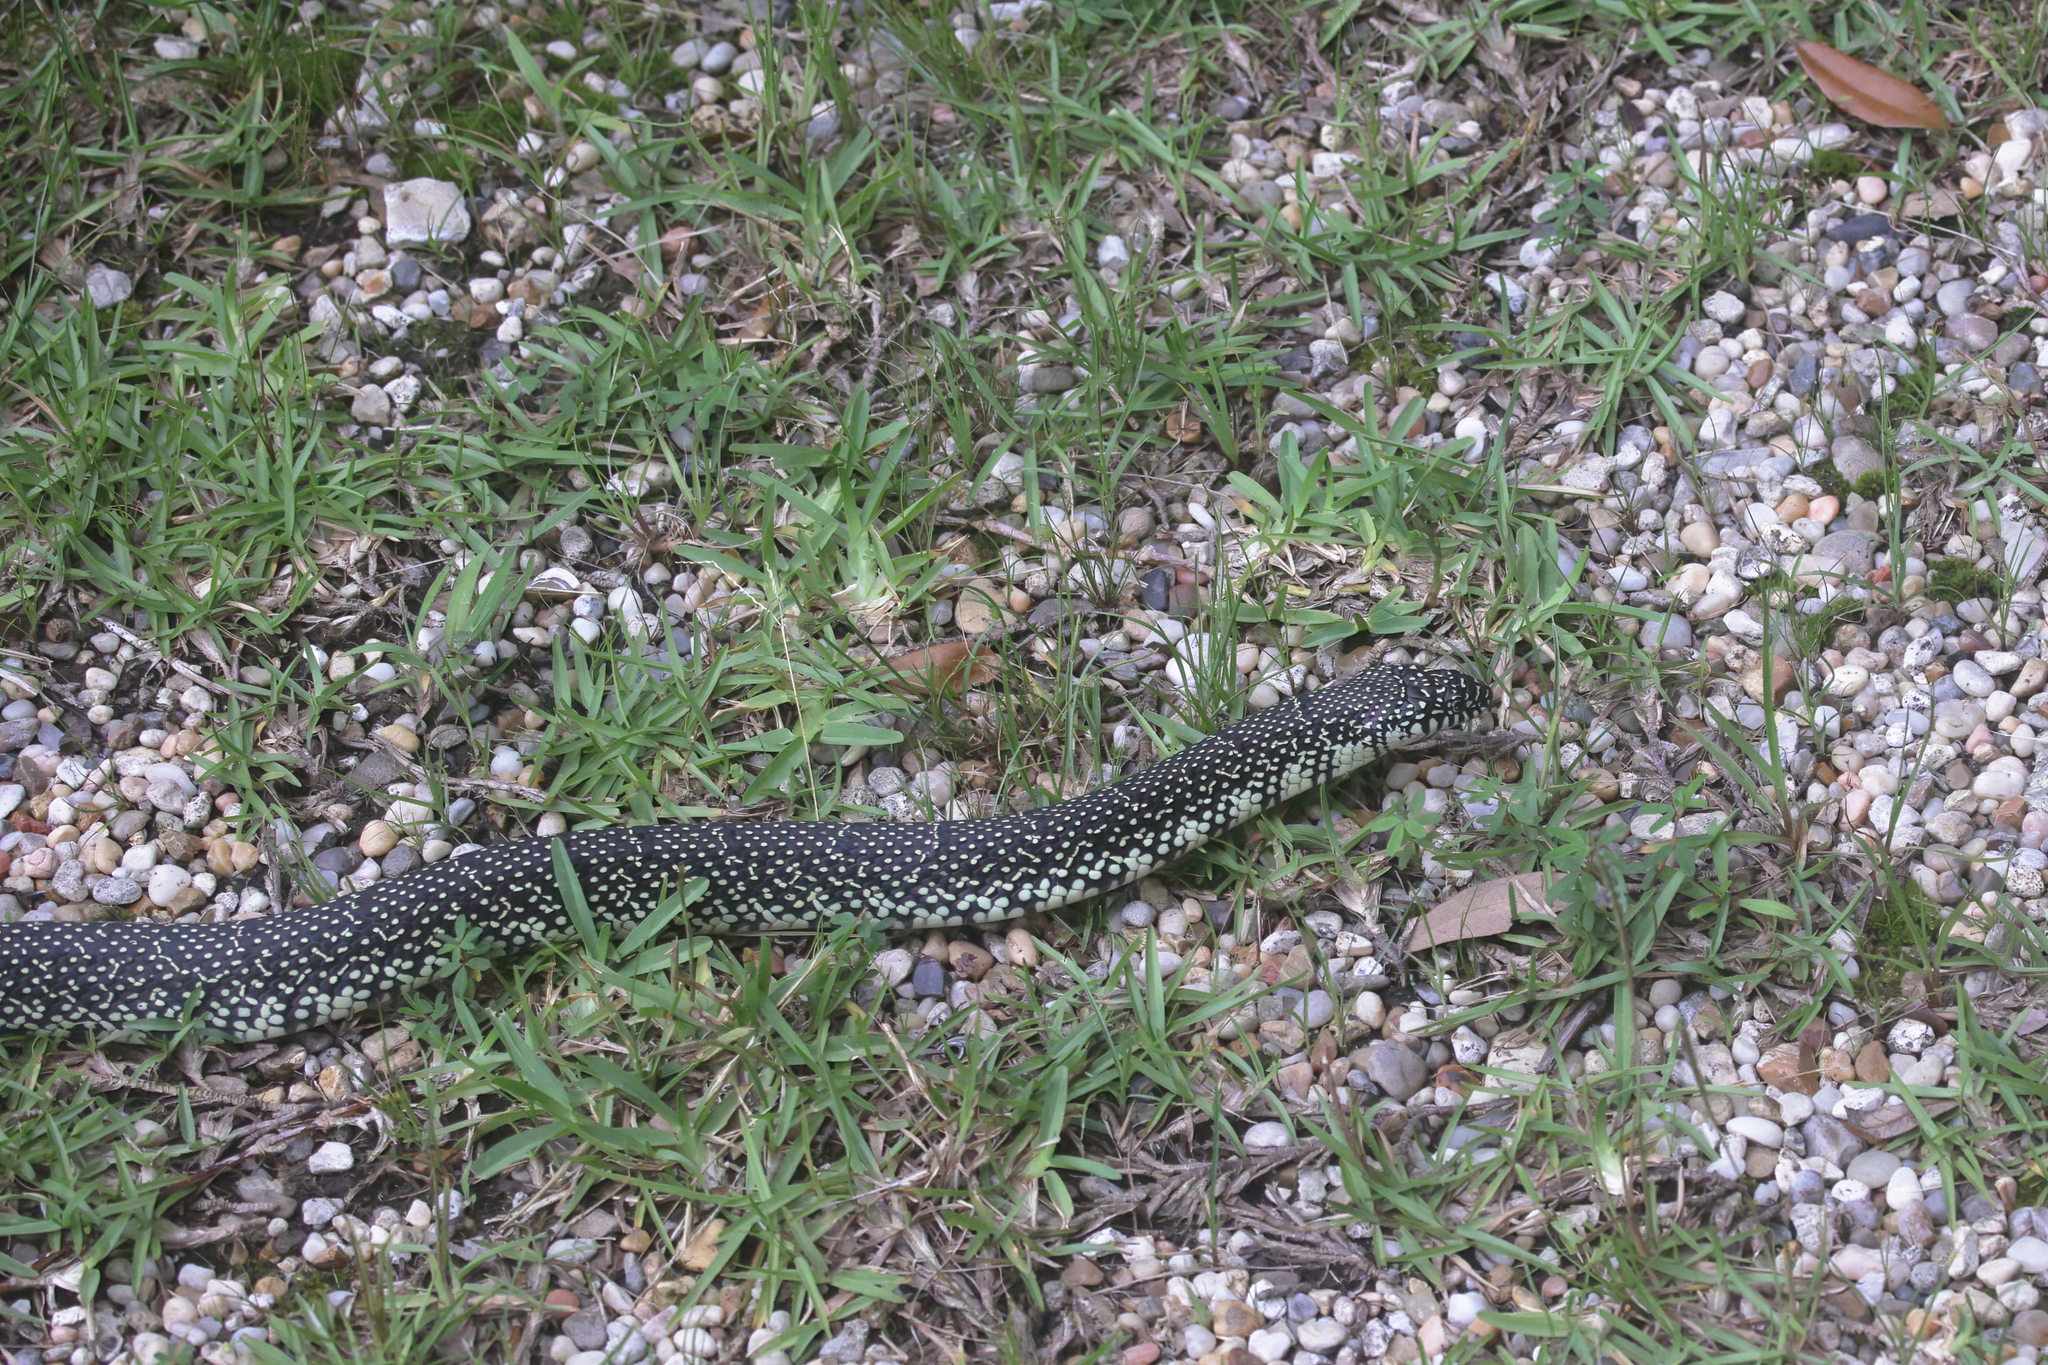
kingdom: Animalia
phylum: Chordata
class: Squamata
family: Colubridae
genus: Lampropeltis
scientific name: Lampropeltis holbrooki
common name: Speckled kingsnake
